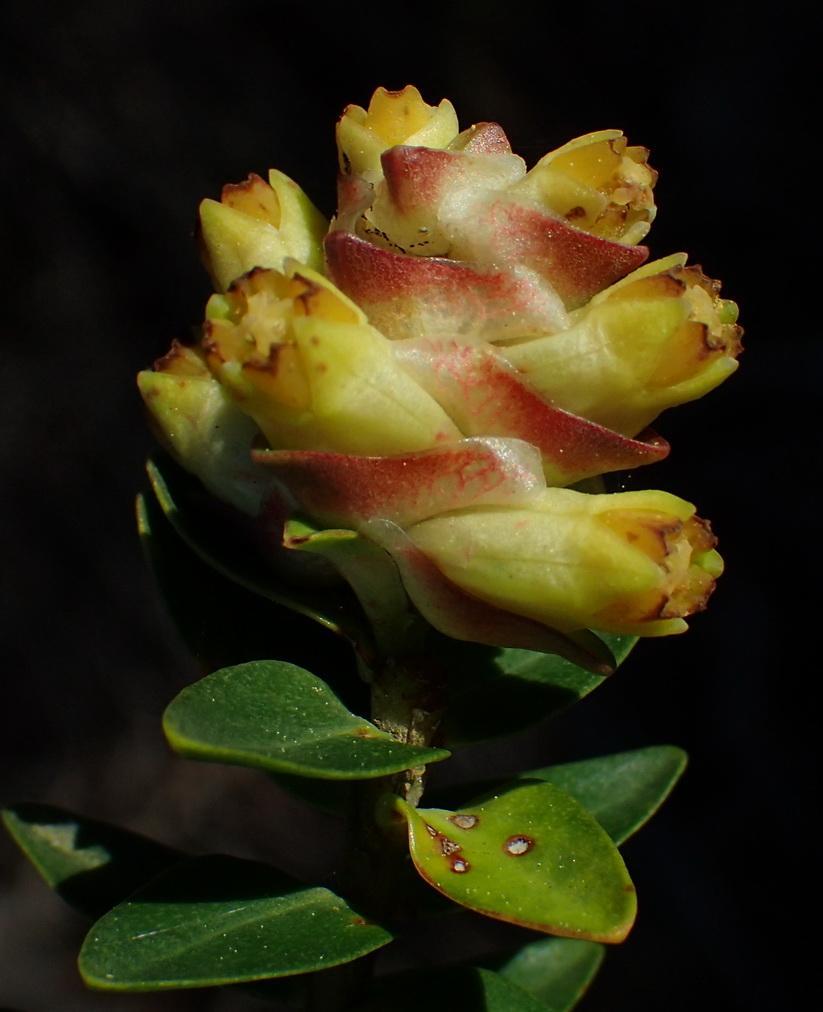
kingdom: Plantae
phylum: Tracheophyta
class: Magnoliopsida
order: Myrtales
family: Penaeaceae
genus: Penaea
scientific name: Penaea cneorum
